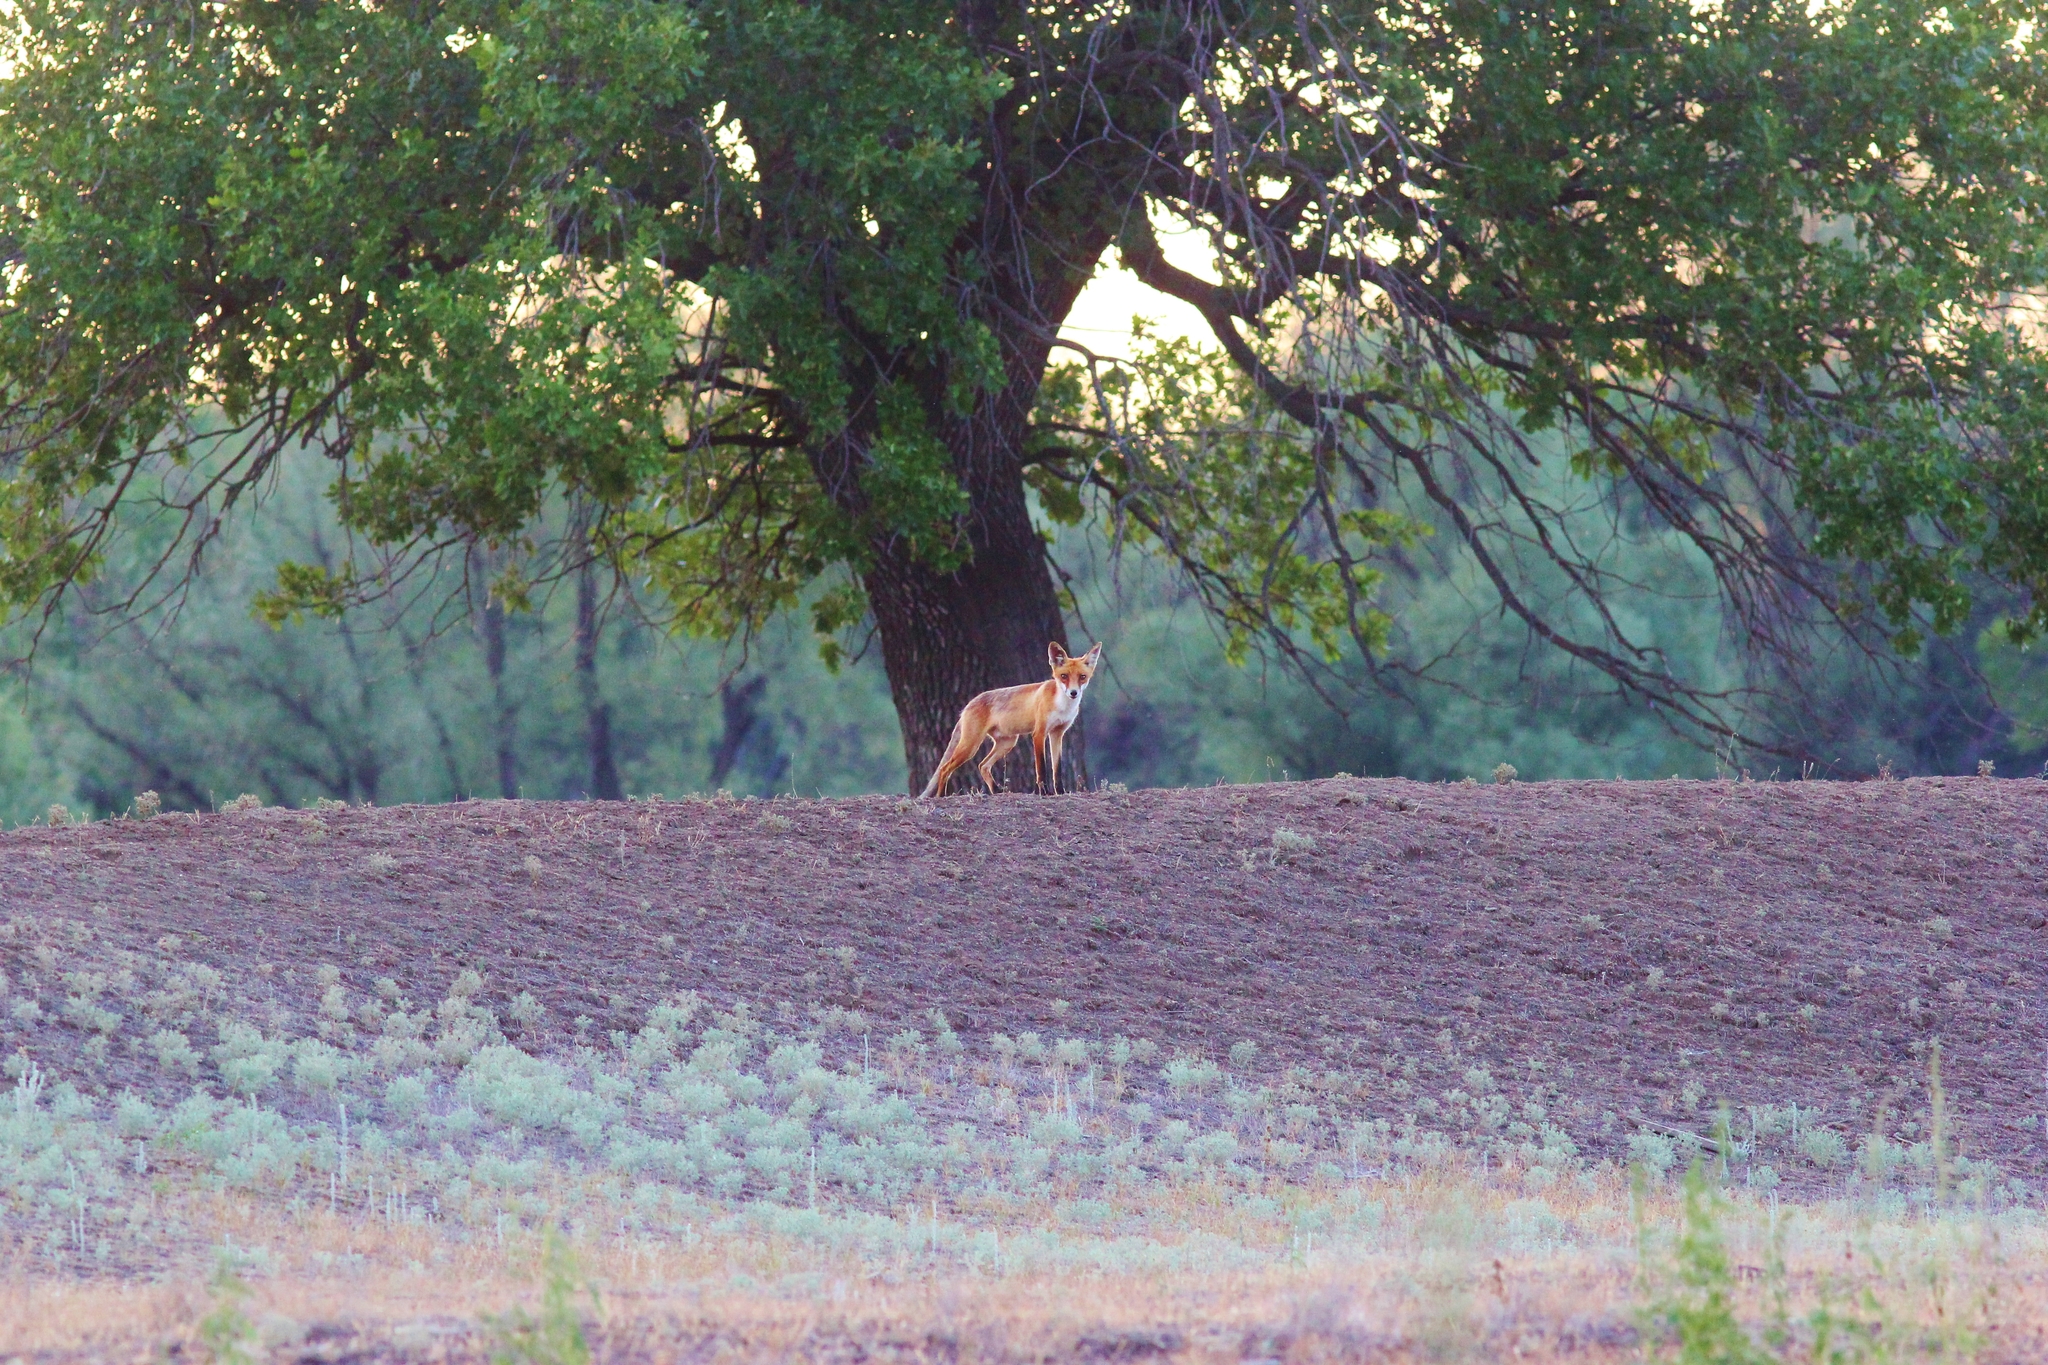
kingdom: Animalia
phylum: Chordata
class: Mammalia
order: Carnivora
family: Canidae
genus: Vulpes
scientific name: Vulpes vulpes
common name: Red fox
